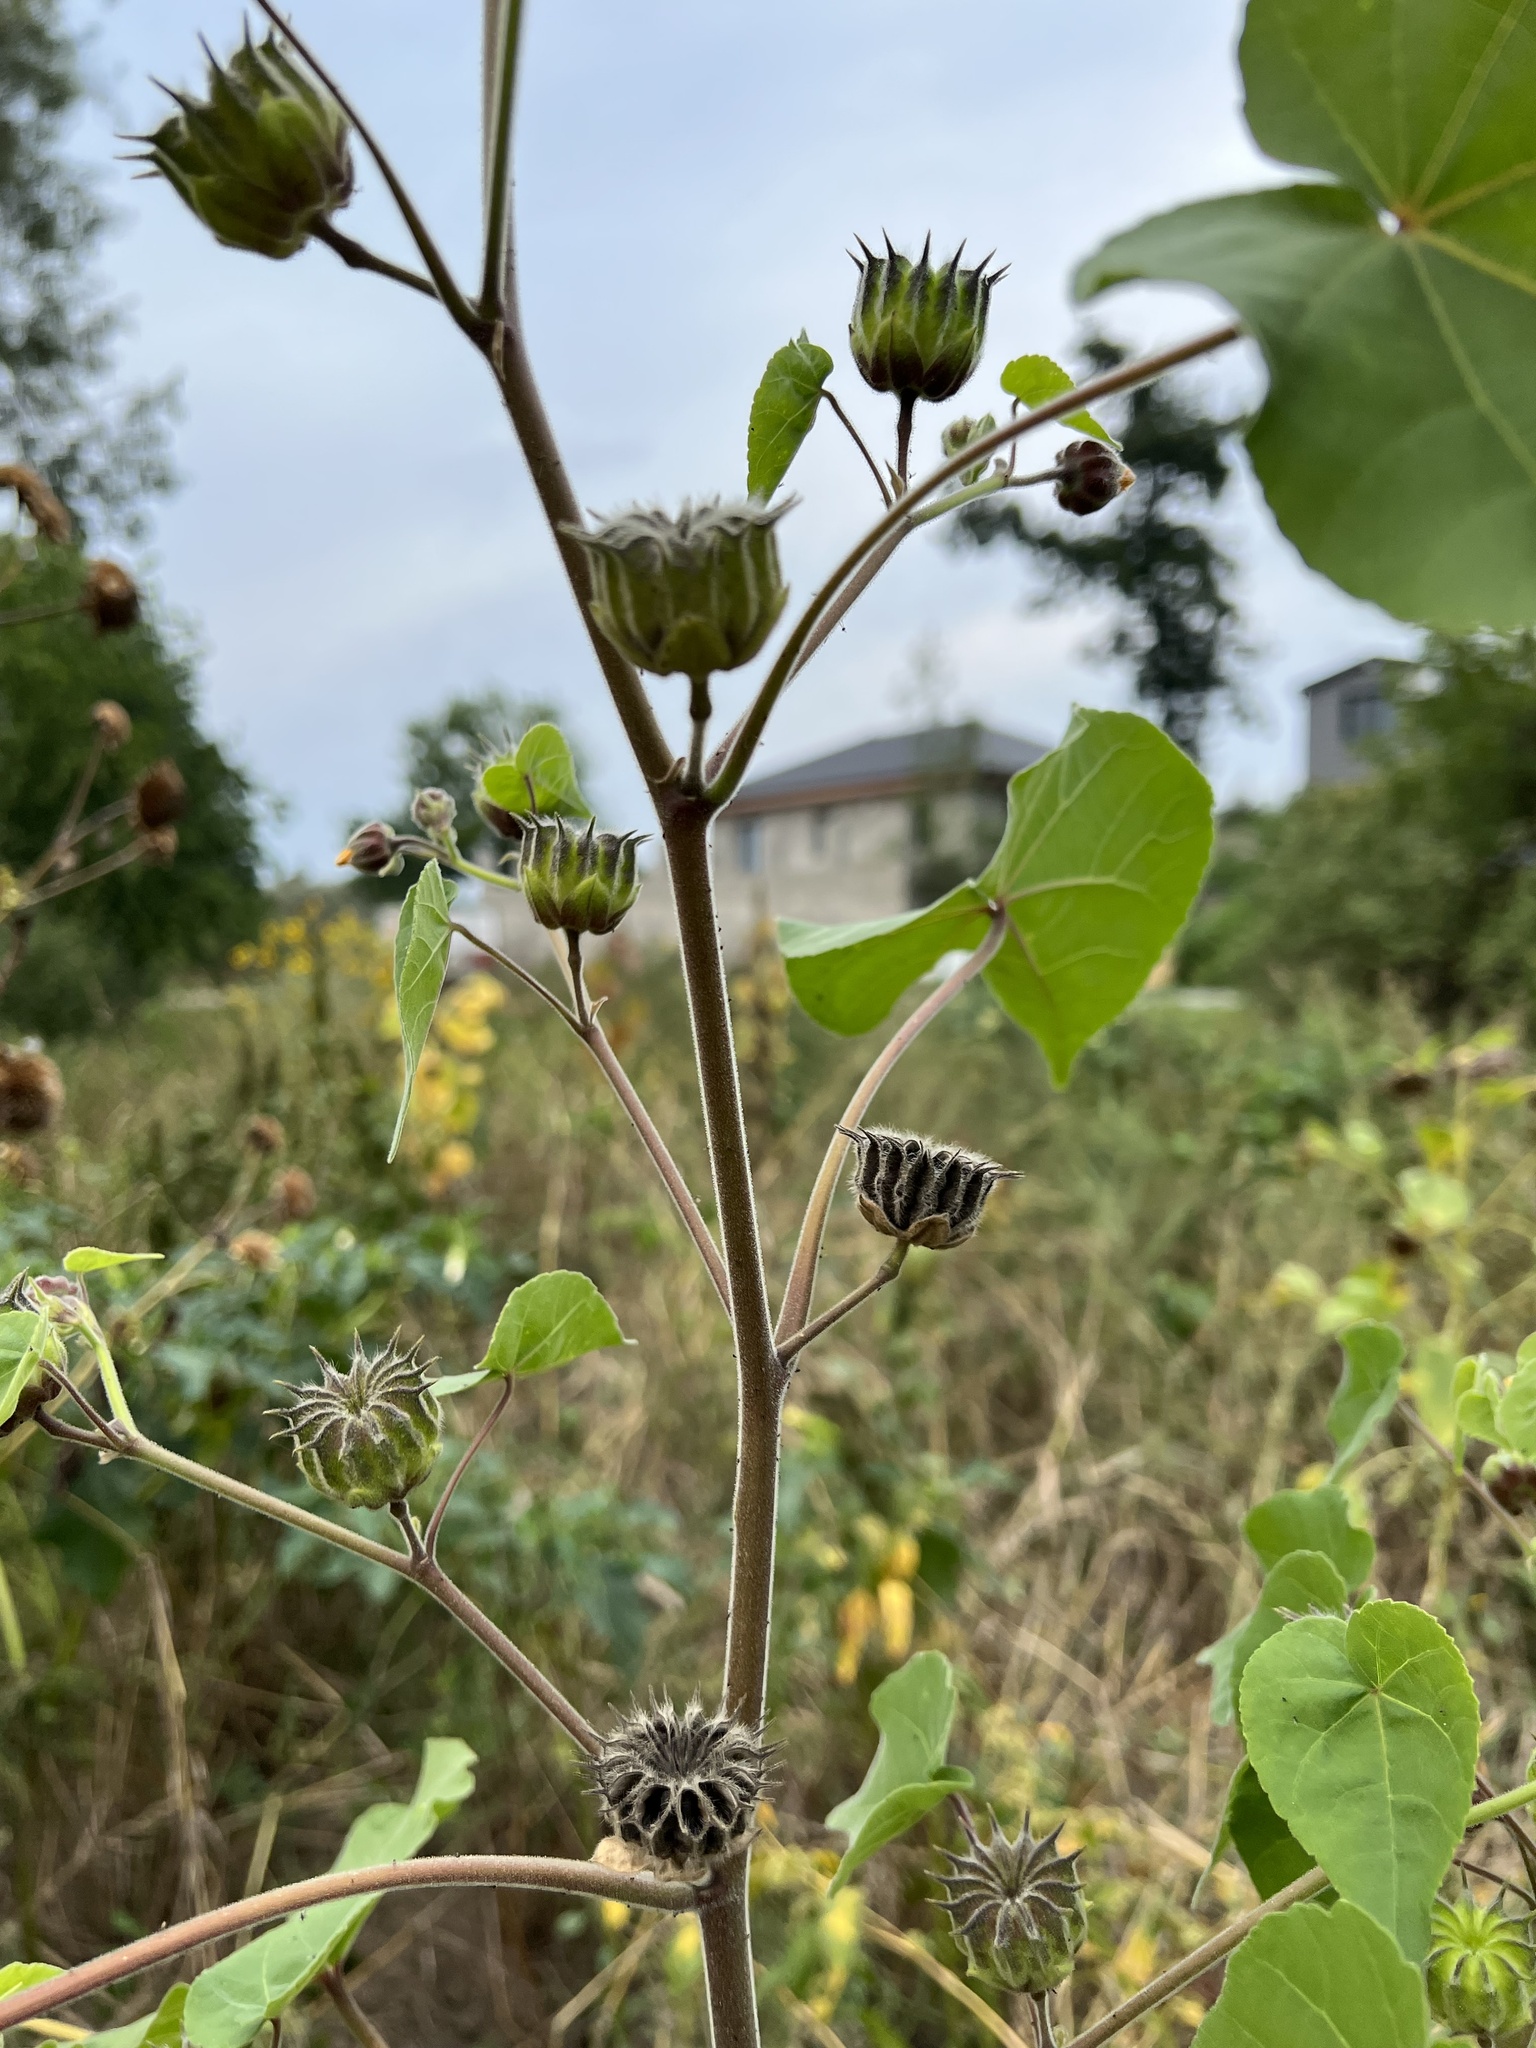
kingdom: Plantae
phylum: Tracheophyta
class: Magnoliopsida
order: Malvales
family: Malvaceae
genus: Abutilon
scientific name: Abutilon theophrasti
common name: Velvetleaf
